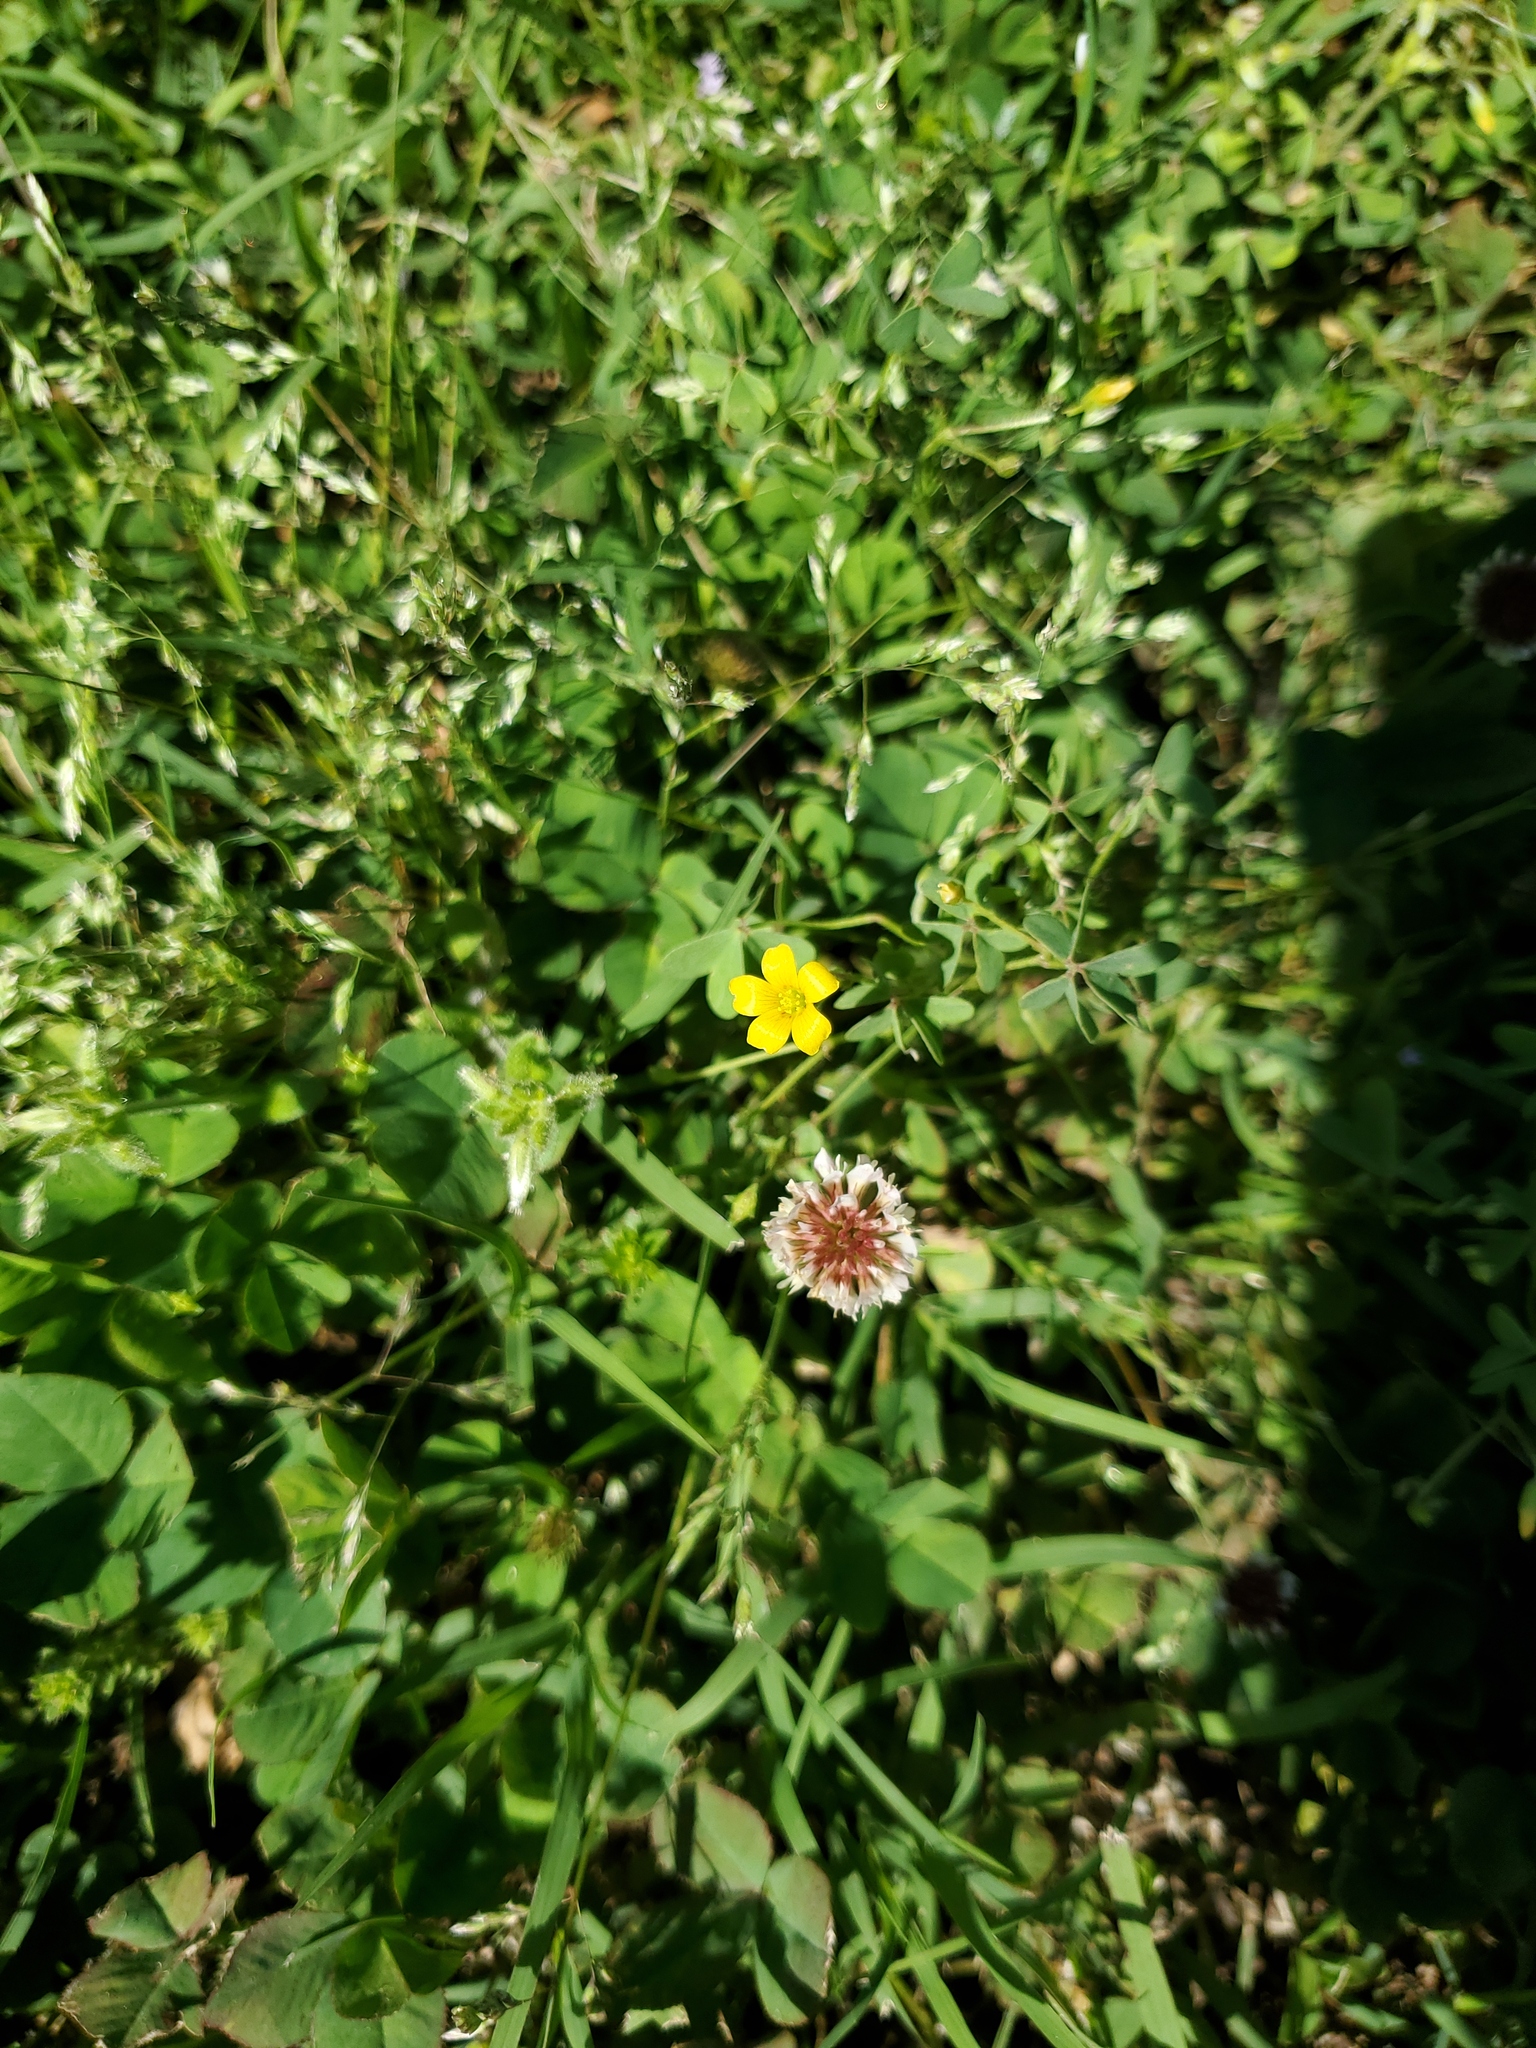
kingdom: Plantae
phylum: Tracheophyta
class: Magnoliopsida
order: Fabales
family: Fabaceae
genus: Trifolium
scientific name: Trifolium repens
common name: White clover
